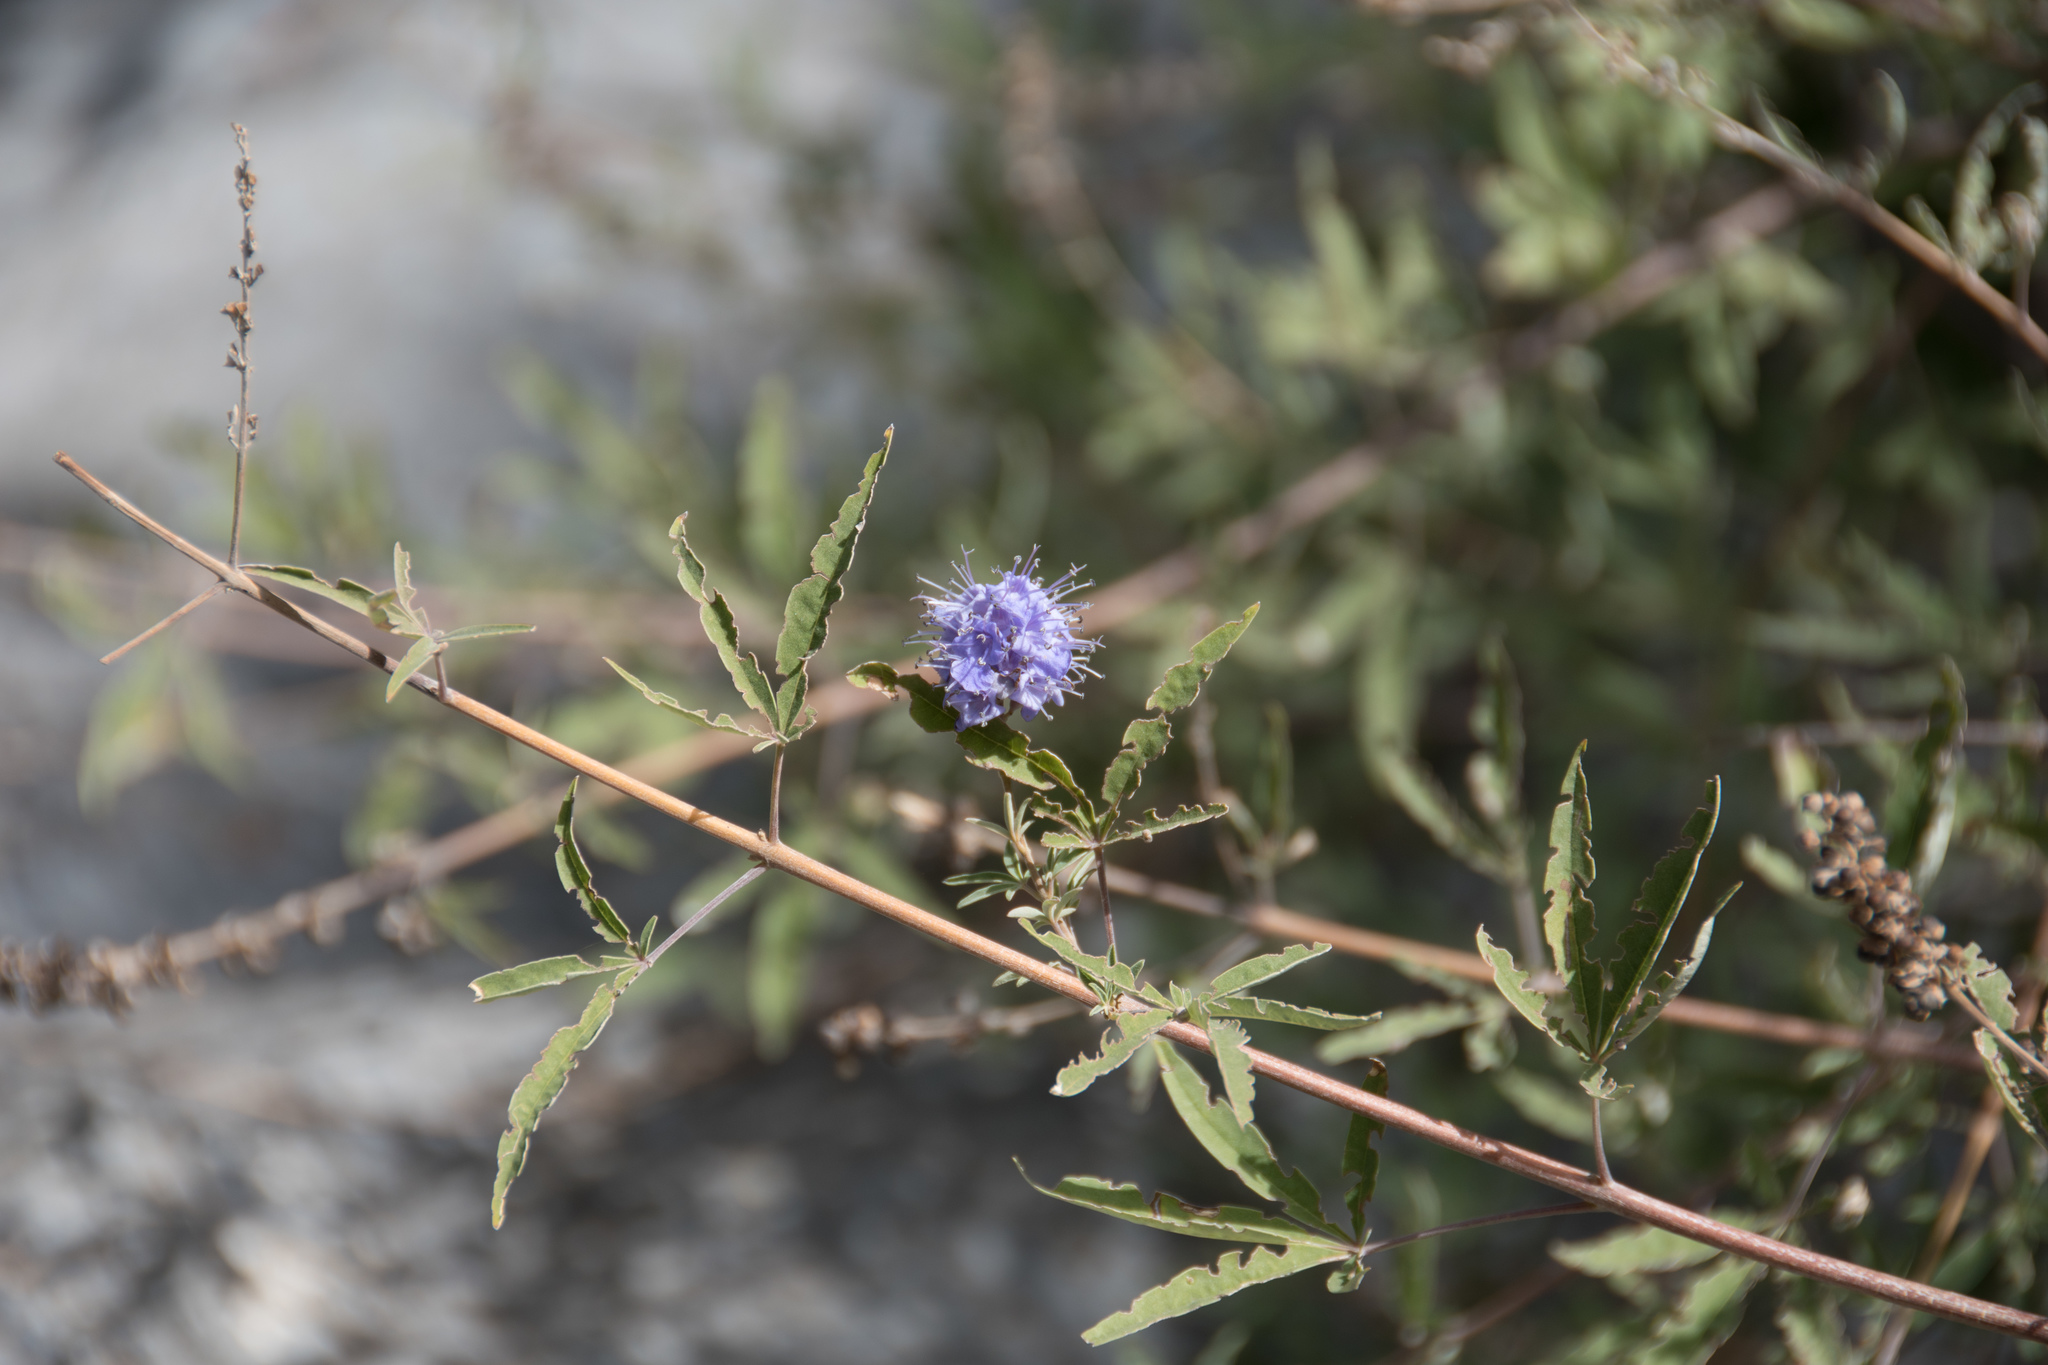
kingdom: Plantae
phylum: Tracheophyta
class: Magnoliopsida
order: Lamiales
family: Lamiaceae
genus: Vitex
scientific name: Vitex agnus-castus
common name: Chasteberry
